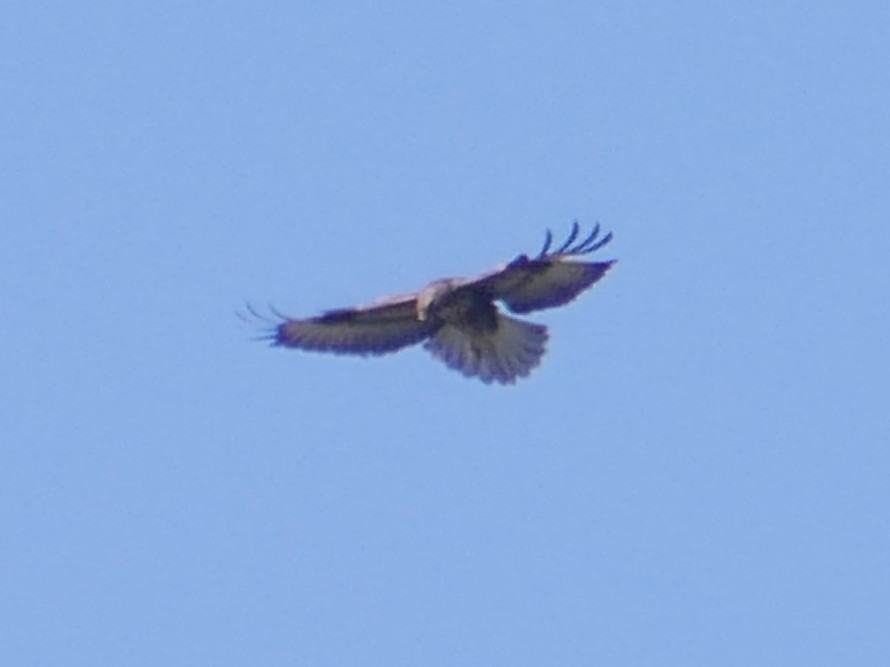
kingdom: Animalia
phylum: Chordata
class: Aves
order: Accipitriformes
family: Accipitridae
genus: Buteo
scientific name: Buteo buteo
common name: Common buzzard
